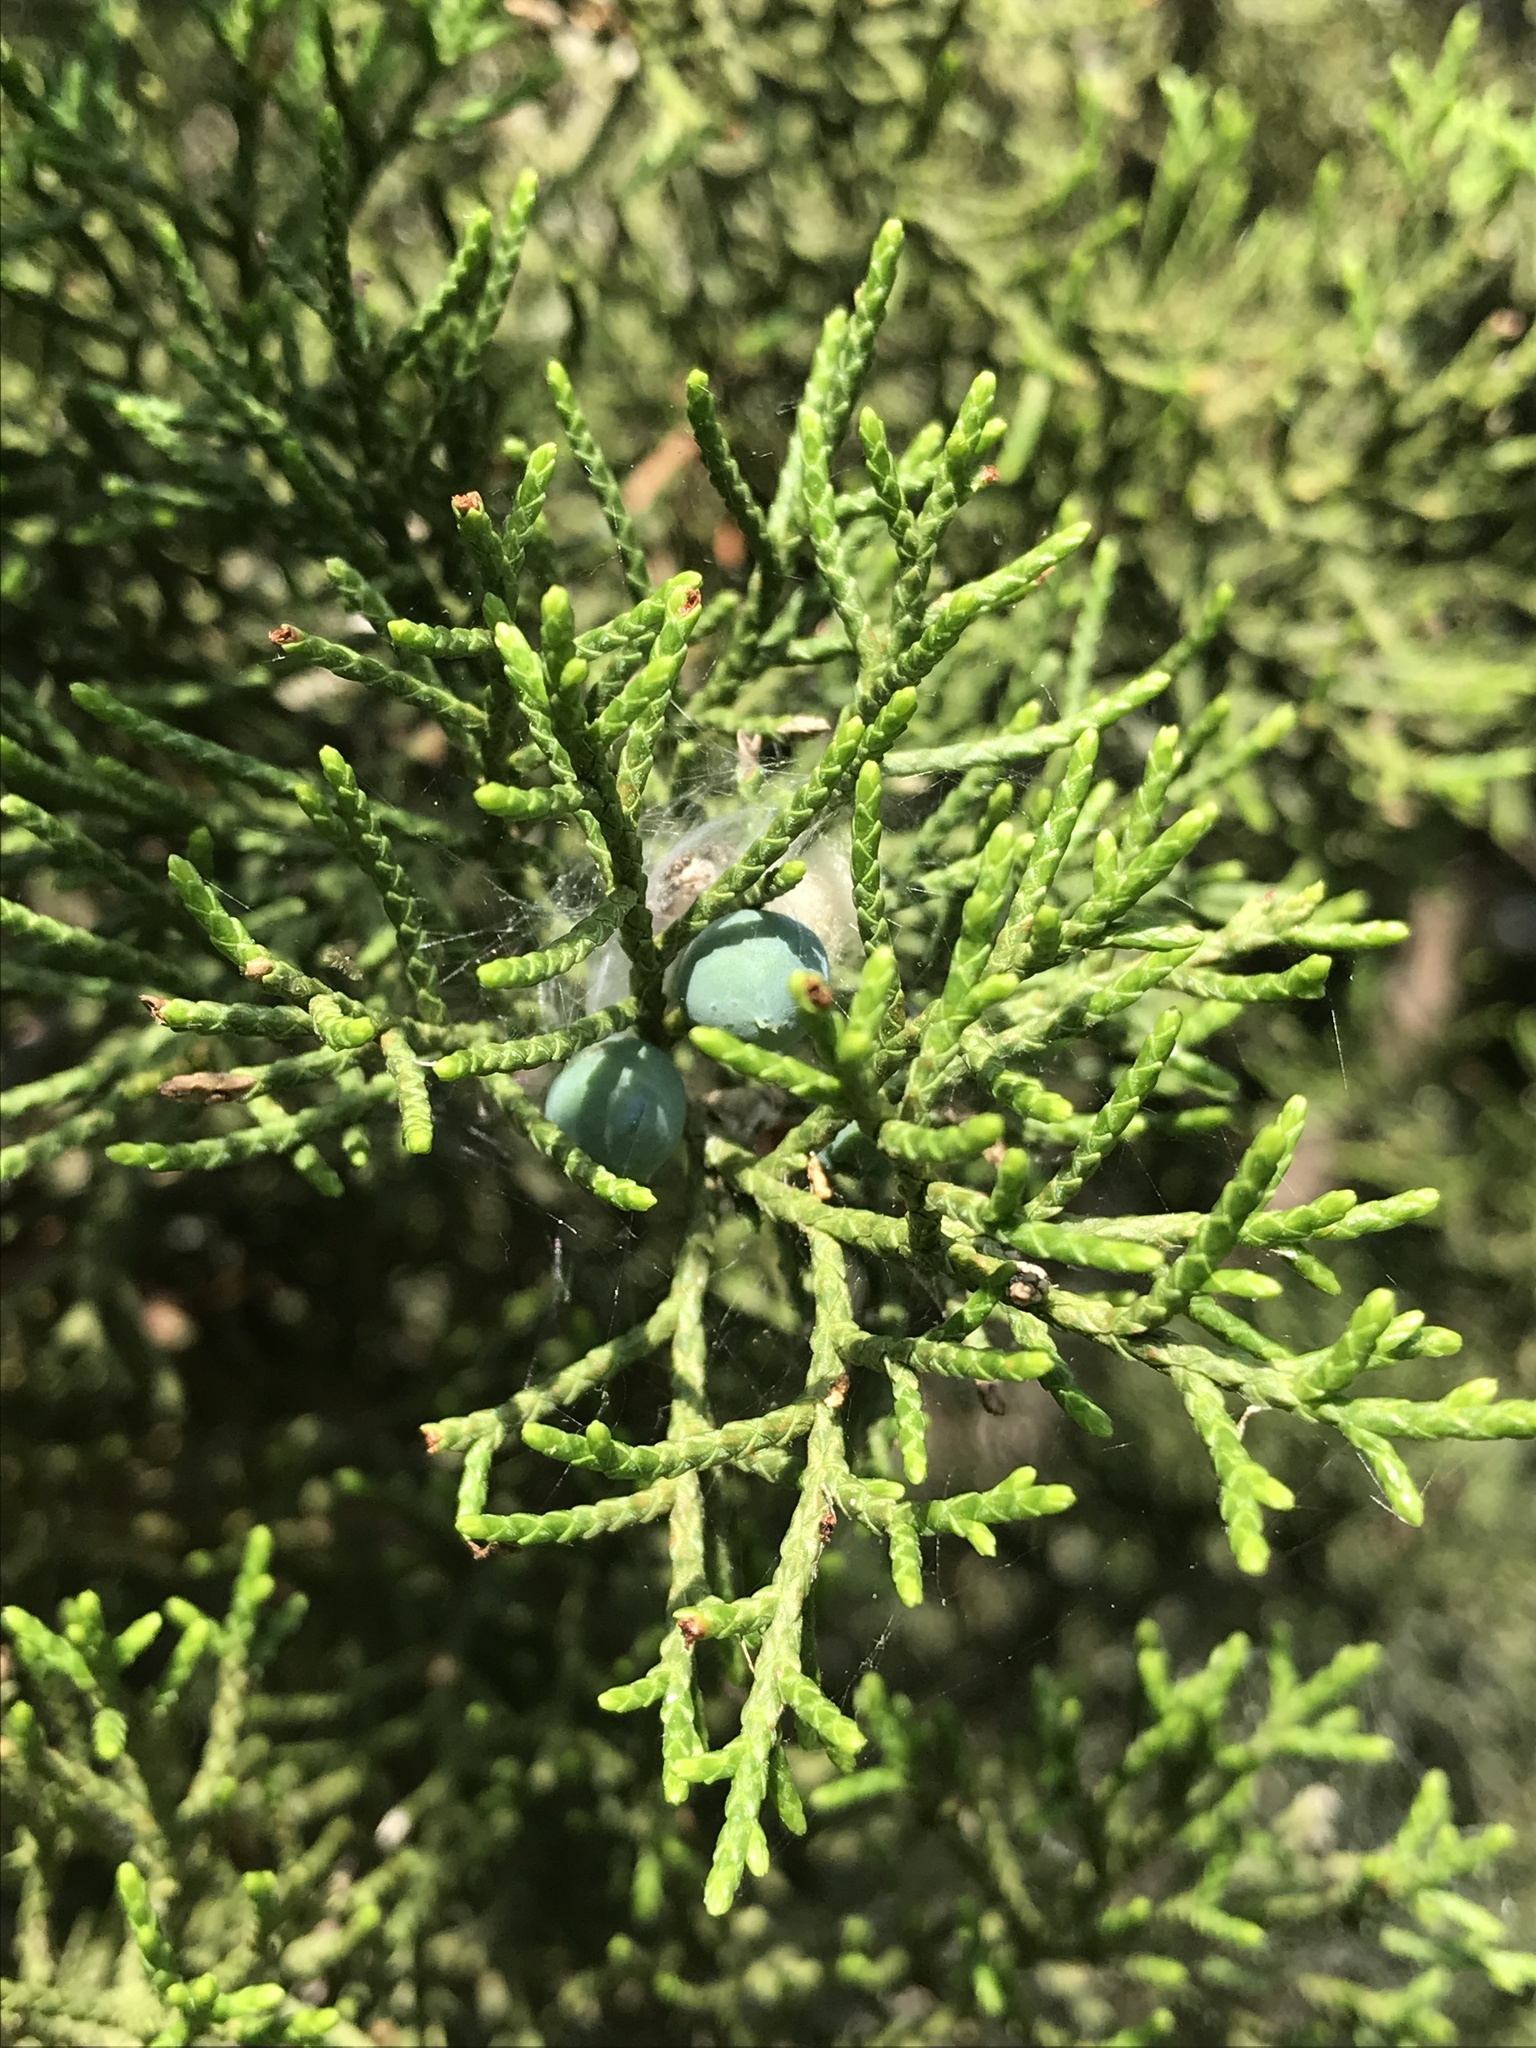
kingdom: Plantae
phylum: Tracheophyta
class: Pinopsida
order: Pinales
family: Cupressaceae
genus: Juniperus
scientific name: Juniperus ashei
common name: Mexican juniper
